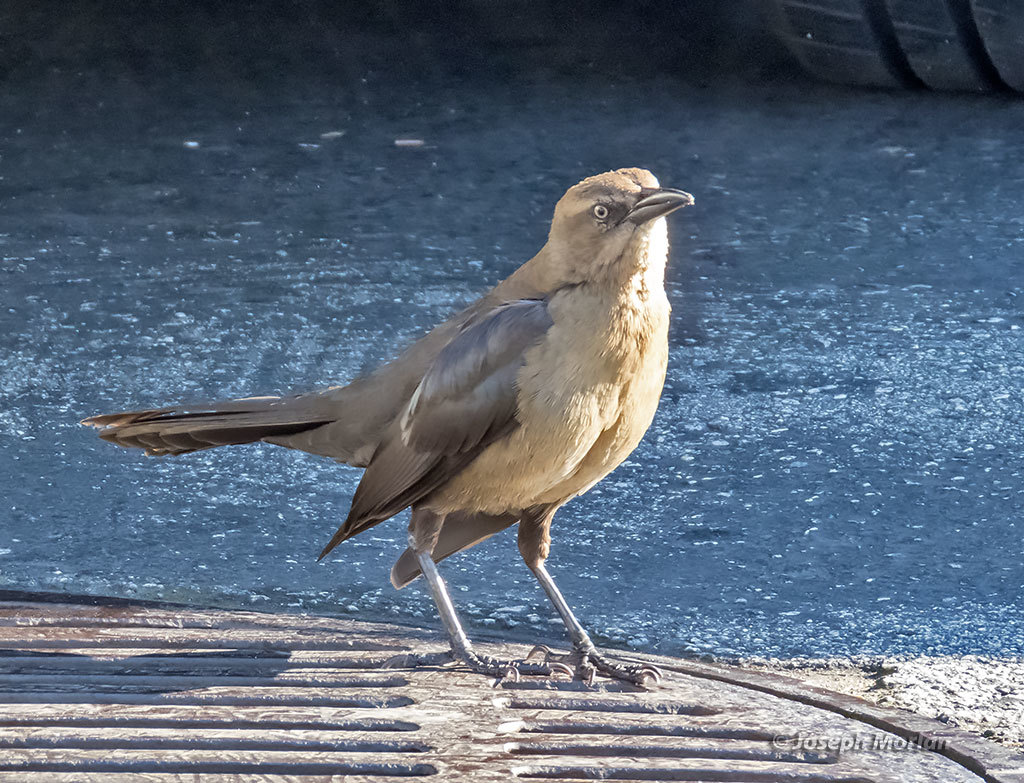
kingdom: Animalia
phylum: Chordata
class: Aves
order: Passeriformes
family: Icteridae
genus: Quiscalus
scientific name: Quiscalus mexicanus
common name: Great-tailed grackle
